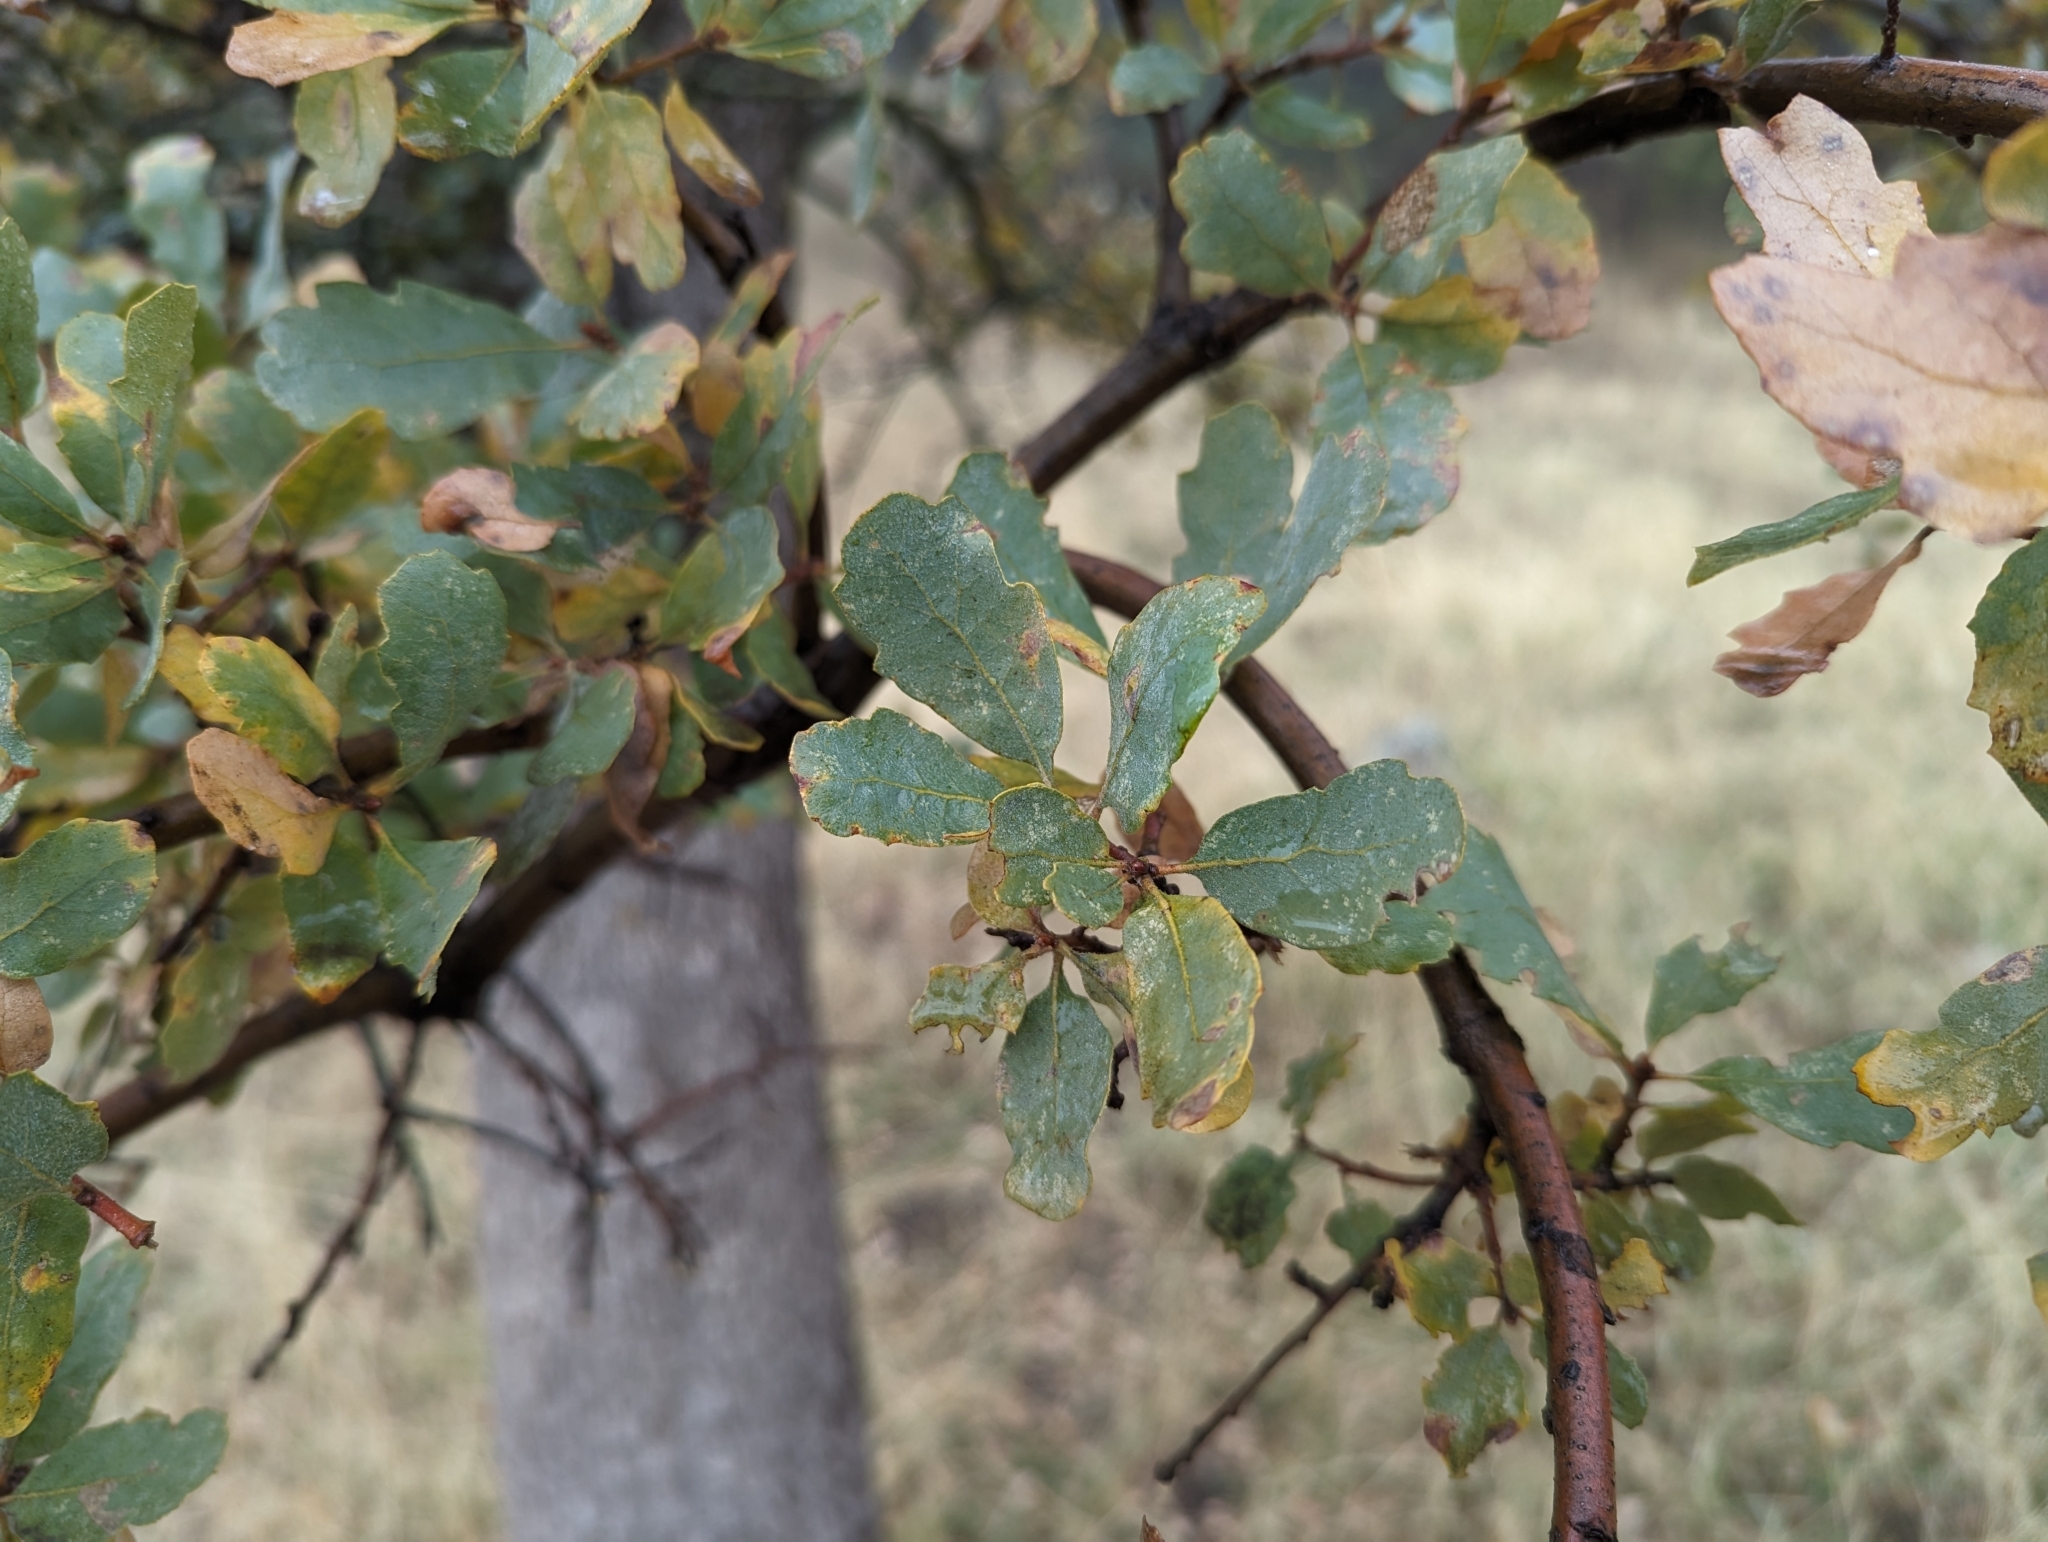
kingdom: Plantae
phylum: Tracheophyta
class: Magnoliopsida
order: Fagales
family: Fagaceae
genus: Quercus
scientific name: Quercus douglasii
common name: Blue oak
